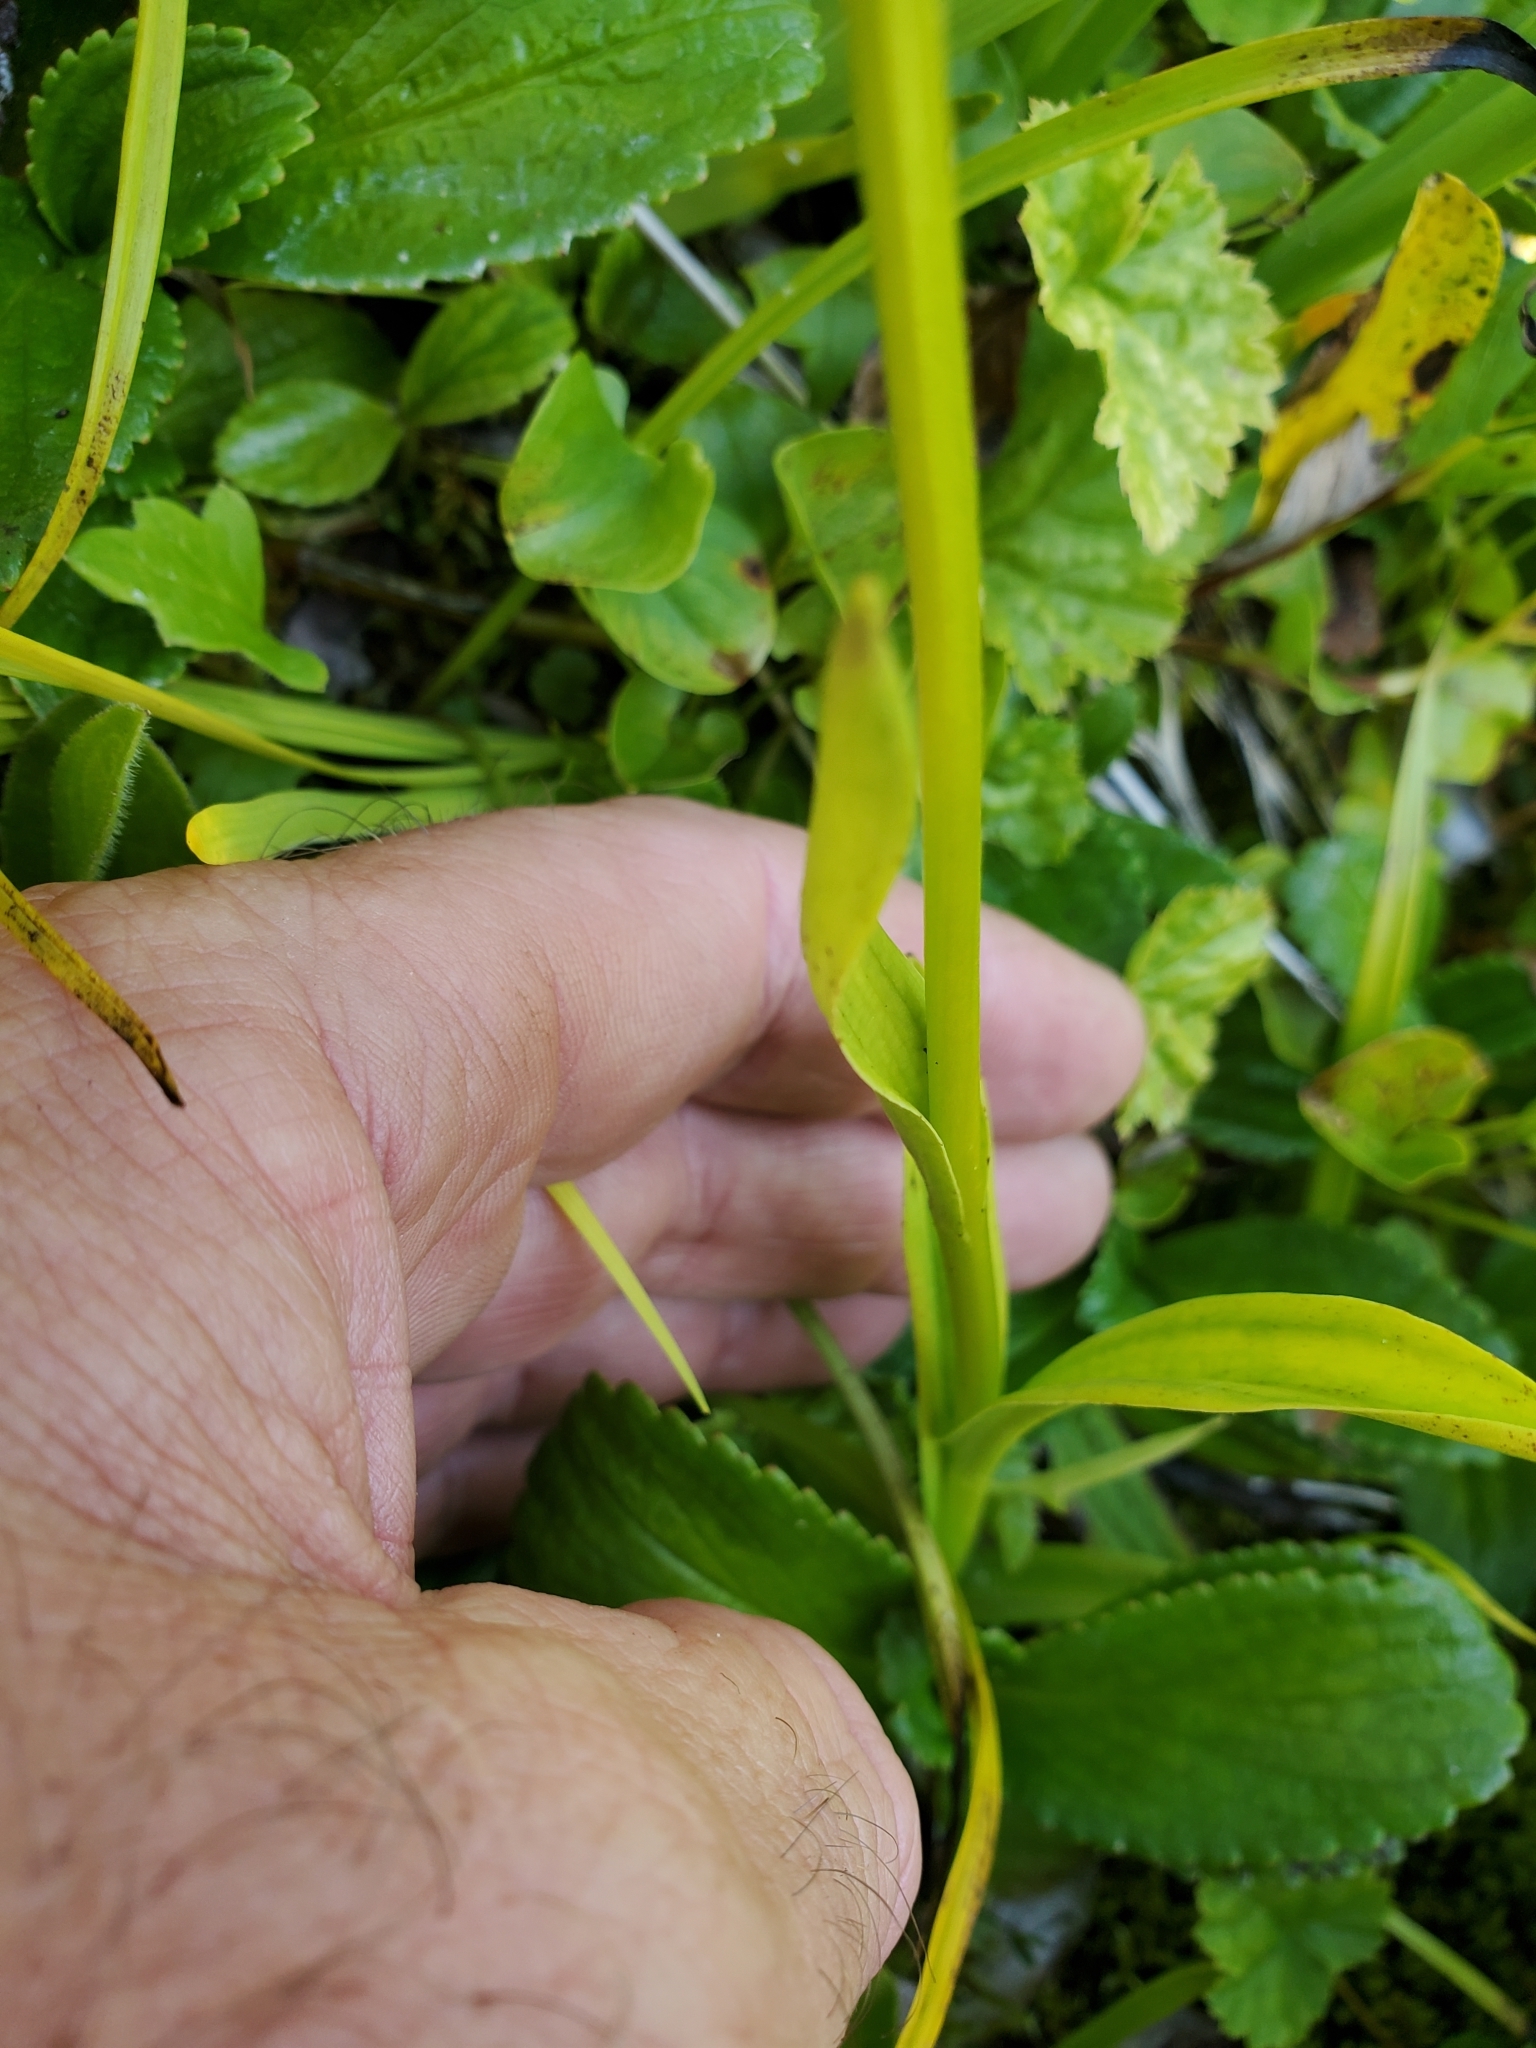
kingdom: Plantae
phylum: Tracheophyta
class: Liliopsida
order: Asparagales
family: Orchidaceae
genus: Platanthera
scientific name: Platanthera dilatata
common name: Bog candles
